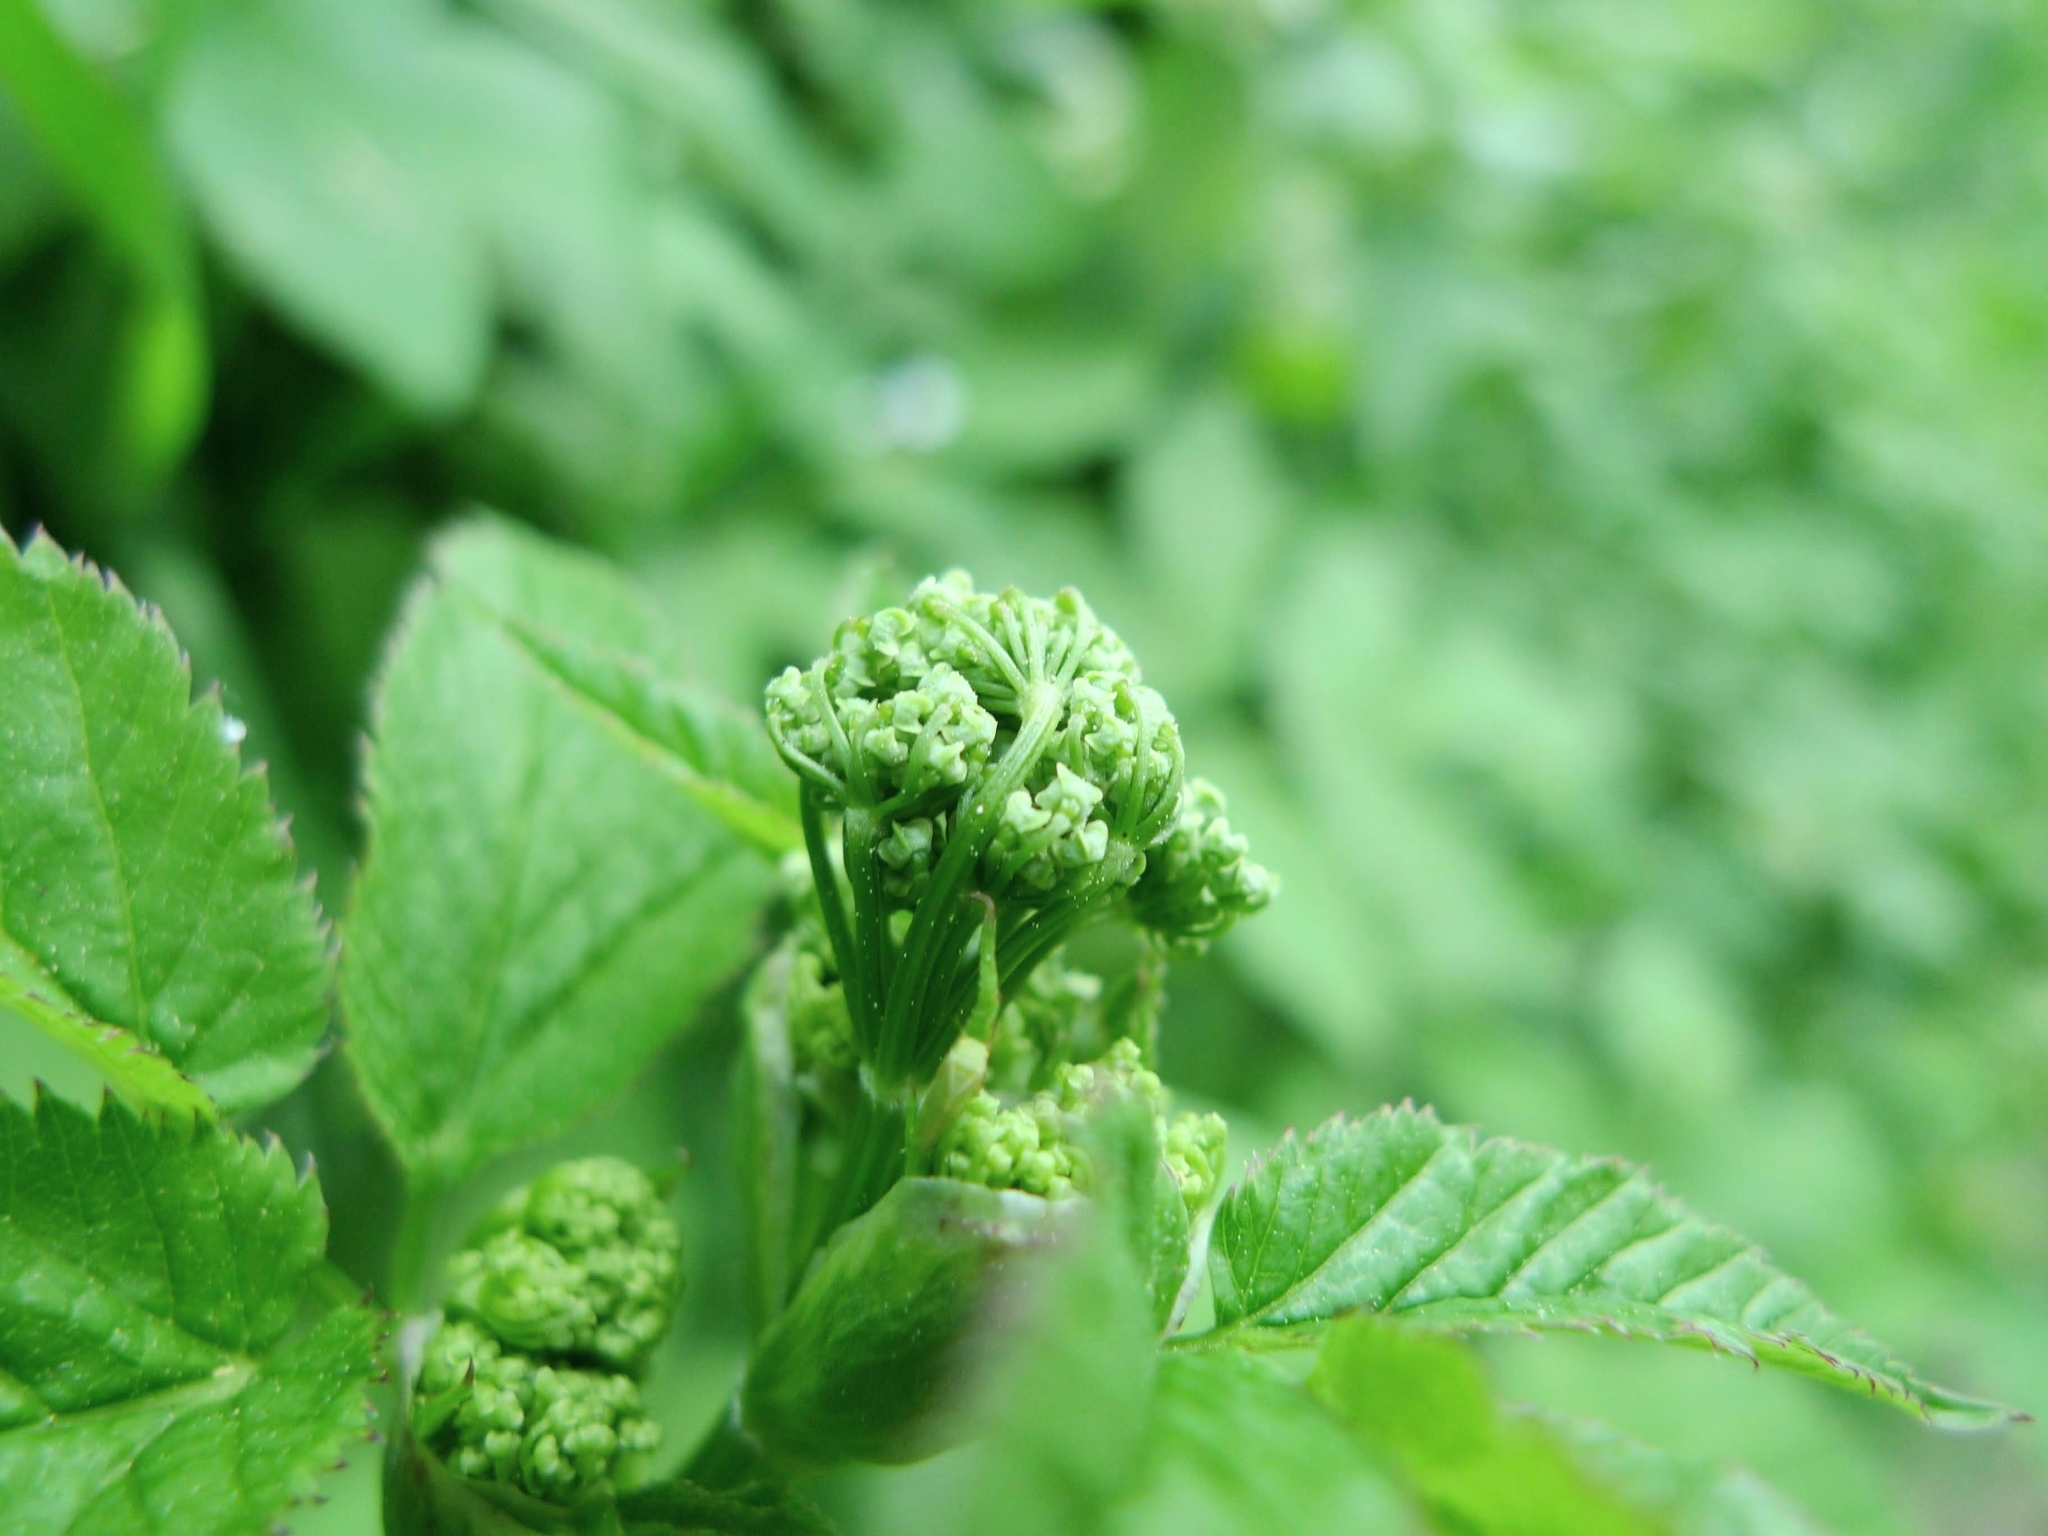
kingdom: Plantae
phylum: Tracheophyta
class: Magnoliopsida
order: Apiales
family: Apiaceae
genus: Aegopodium
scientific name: Aegopodium podagraria
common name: Ground-elder
